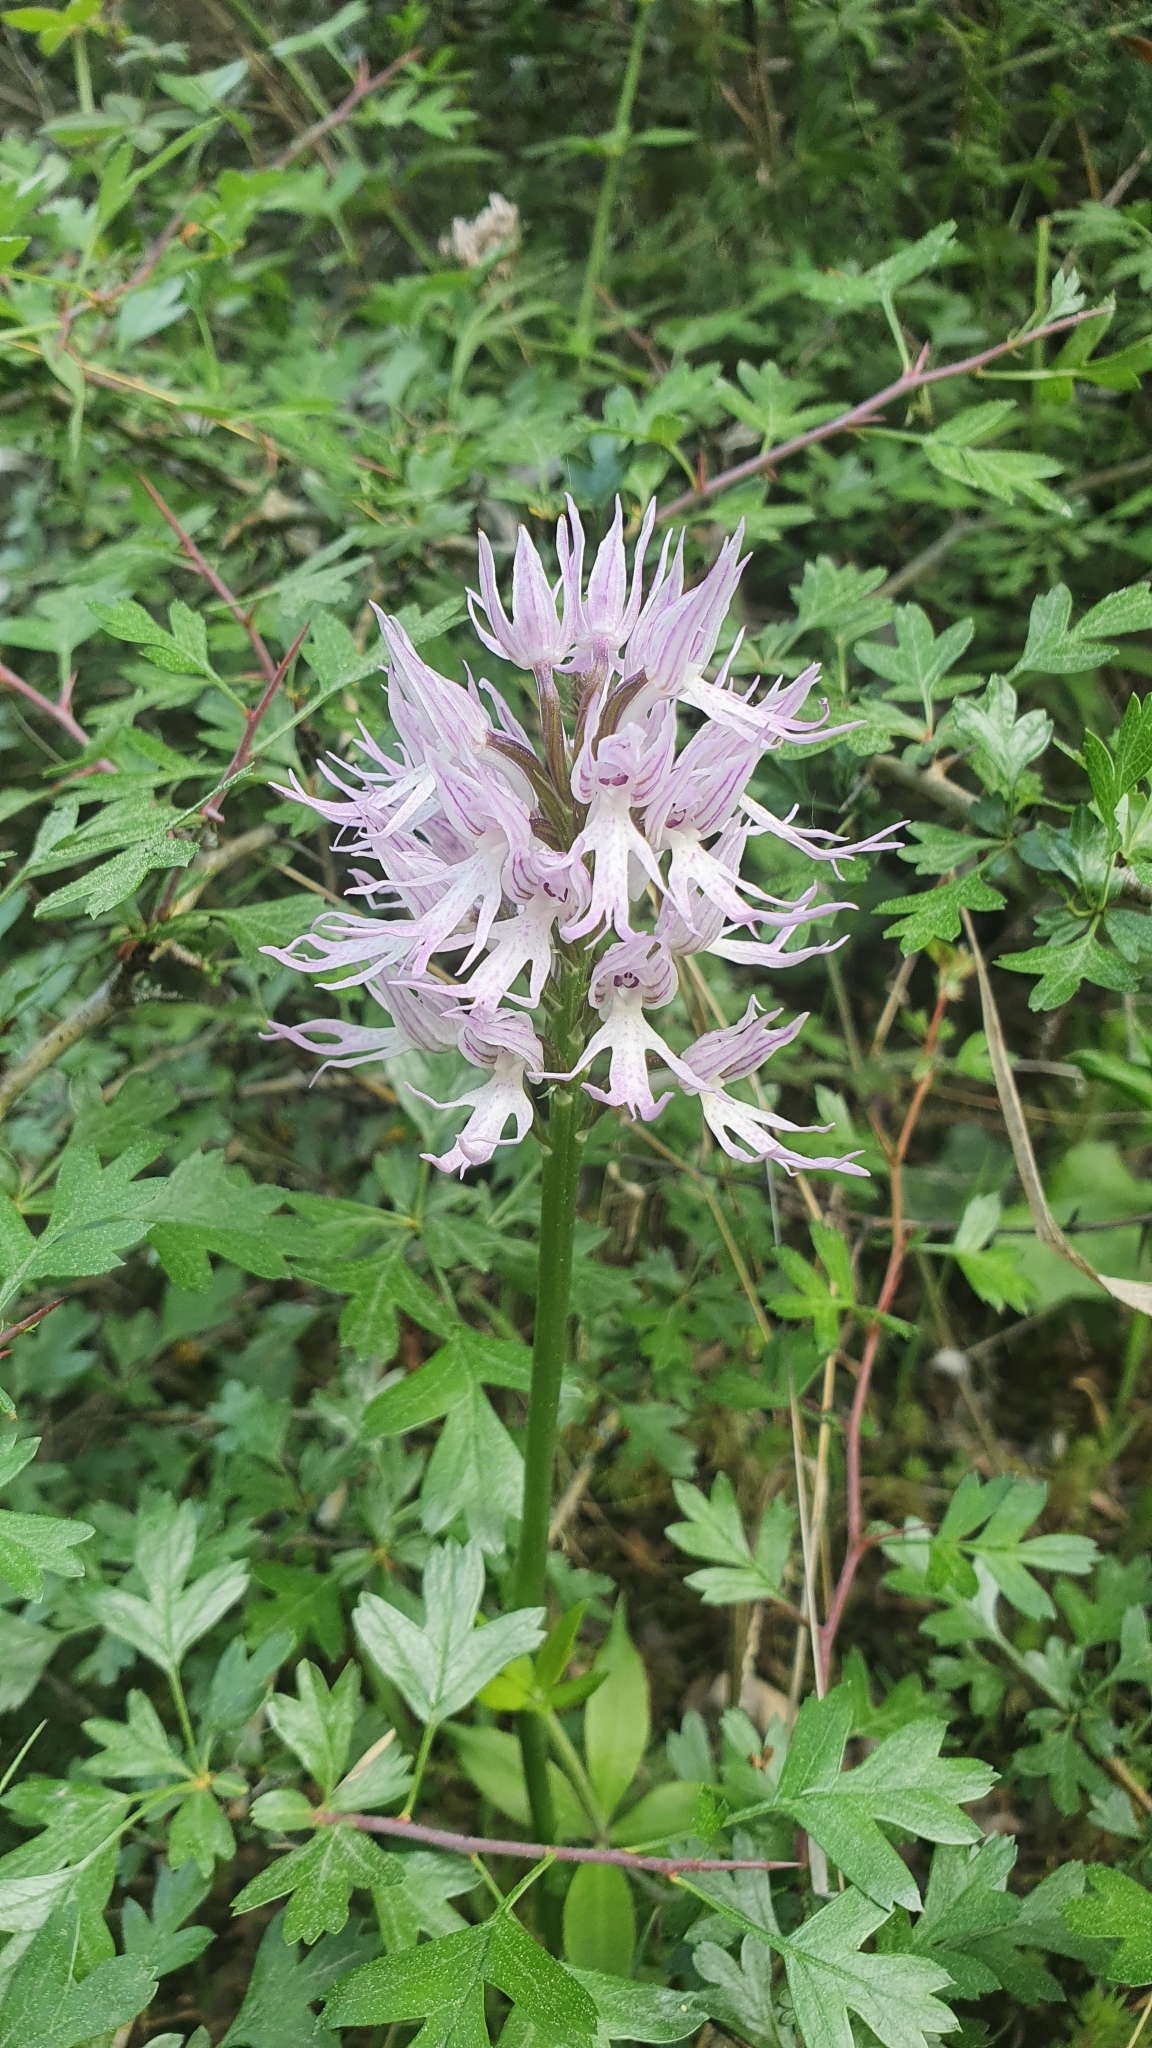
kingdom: Plantae
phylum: Tracheophyta
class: Liliopsida
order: Asparagales
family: Orchidaceae
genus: Orchis
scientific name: Orchis italica
